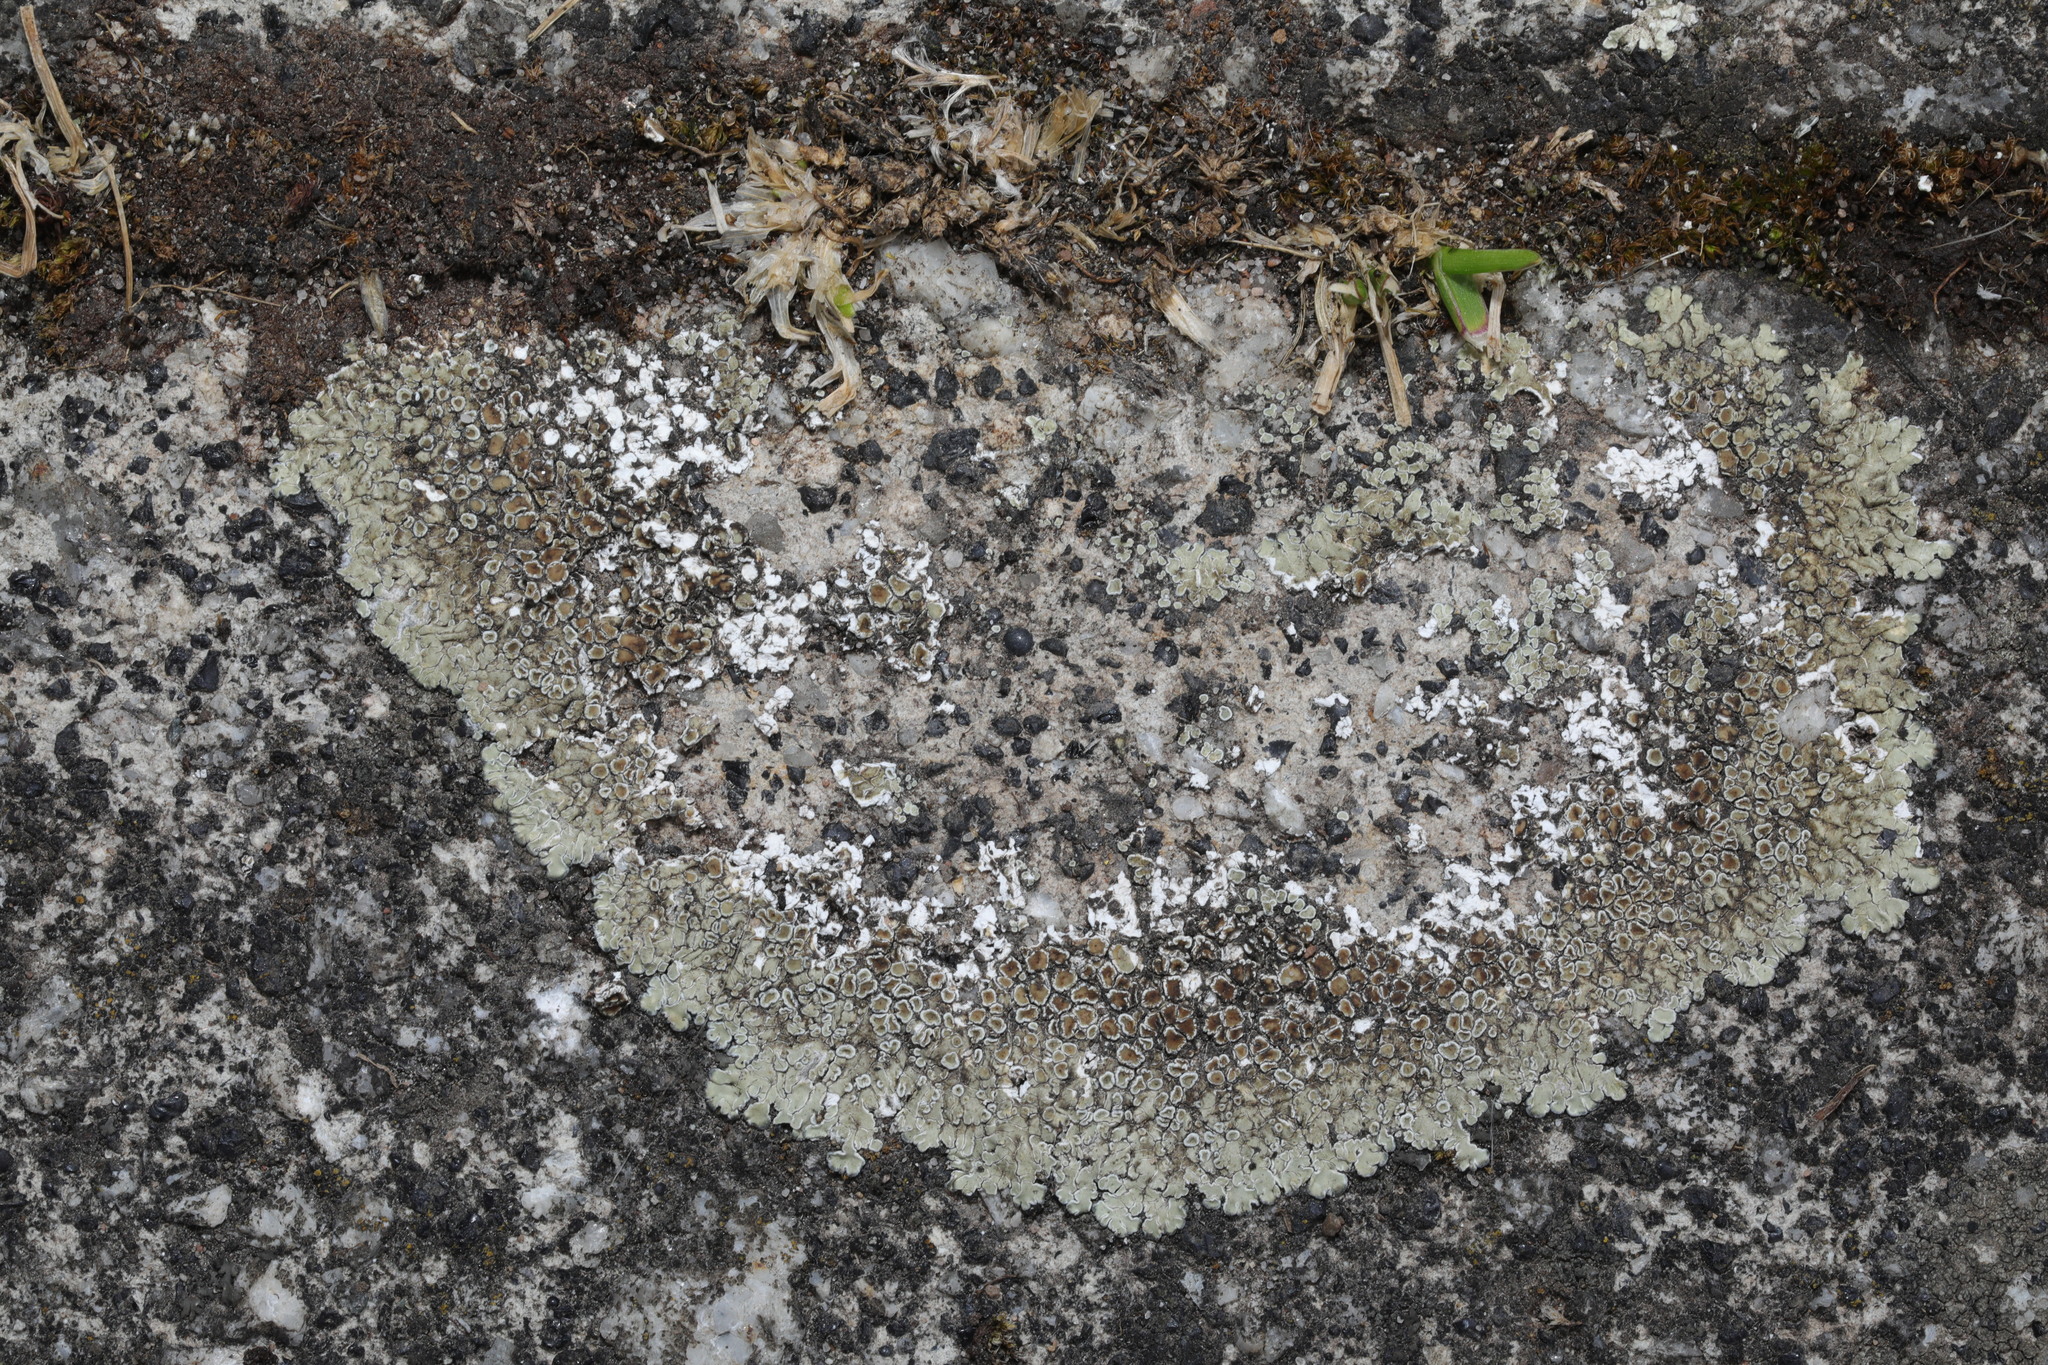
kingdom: Fungi
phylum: Ascomycota
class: Lecanoromycetes
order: Lecanorales
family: Lecanoraceae
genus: Protoparmeliopsis
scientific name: Protoparmeliopsis muralis
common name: Stonewall rim lichen
